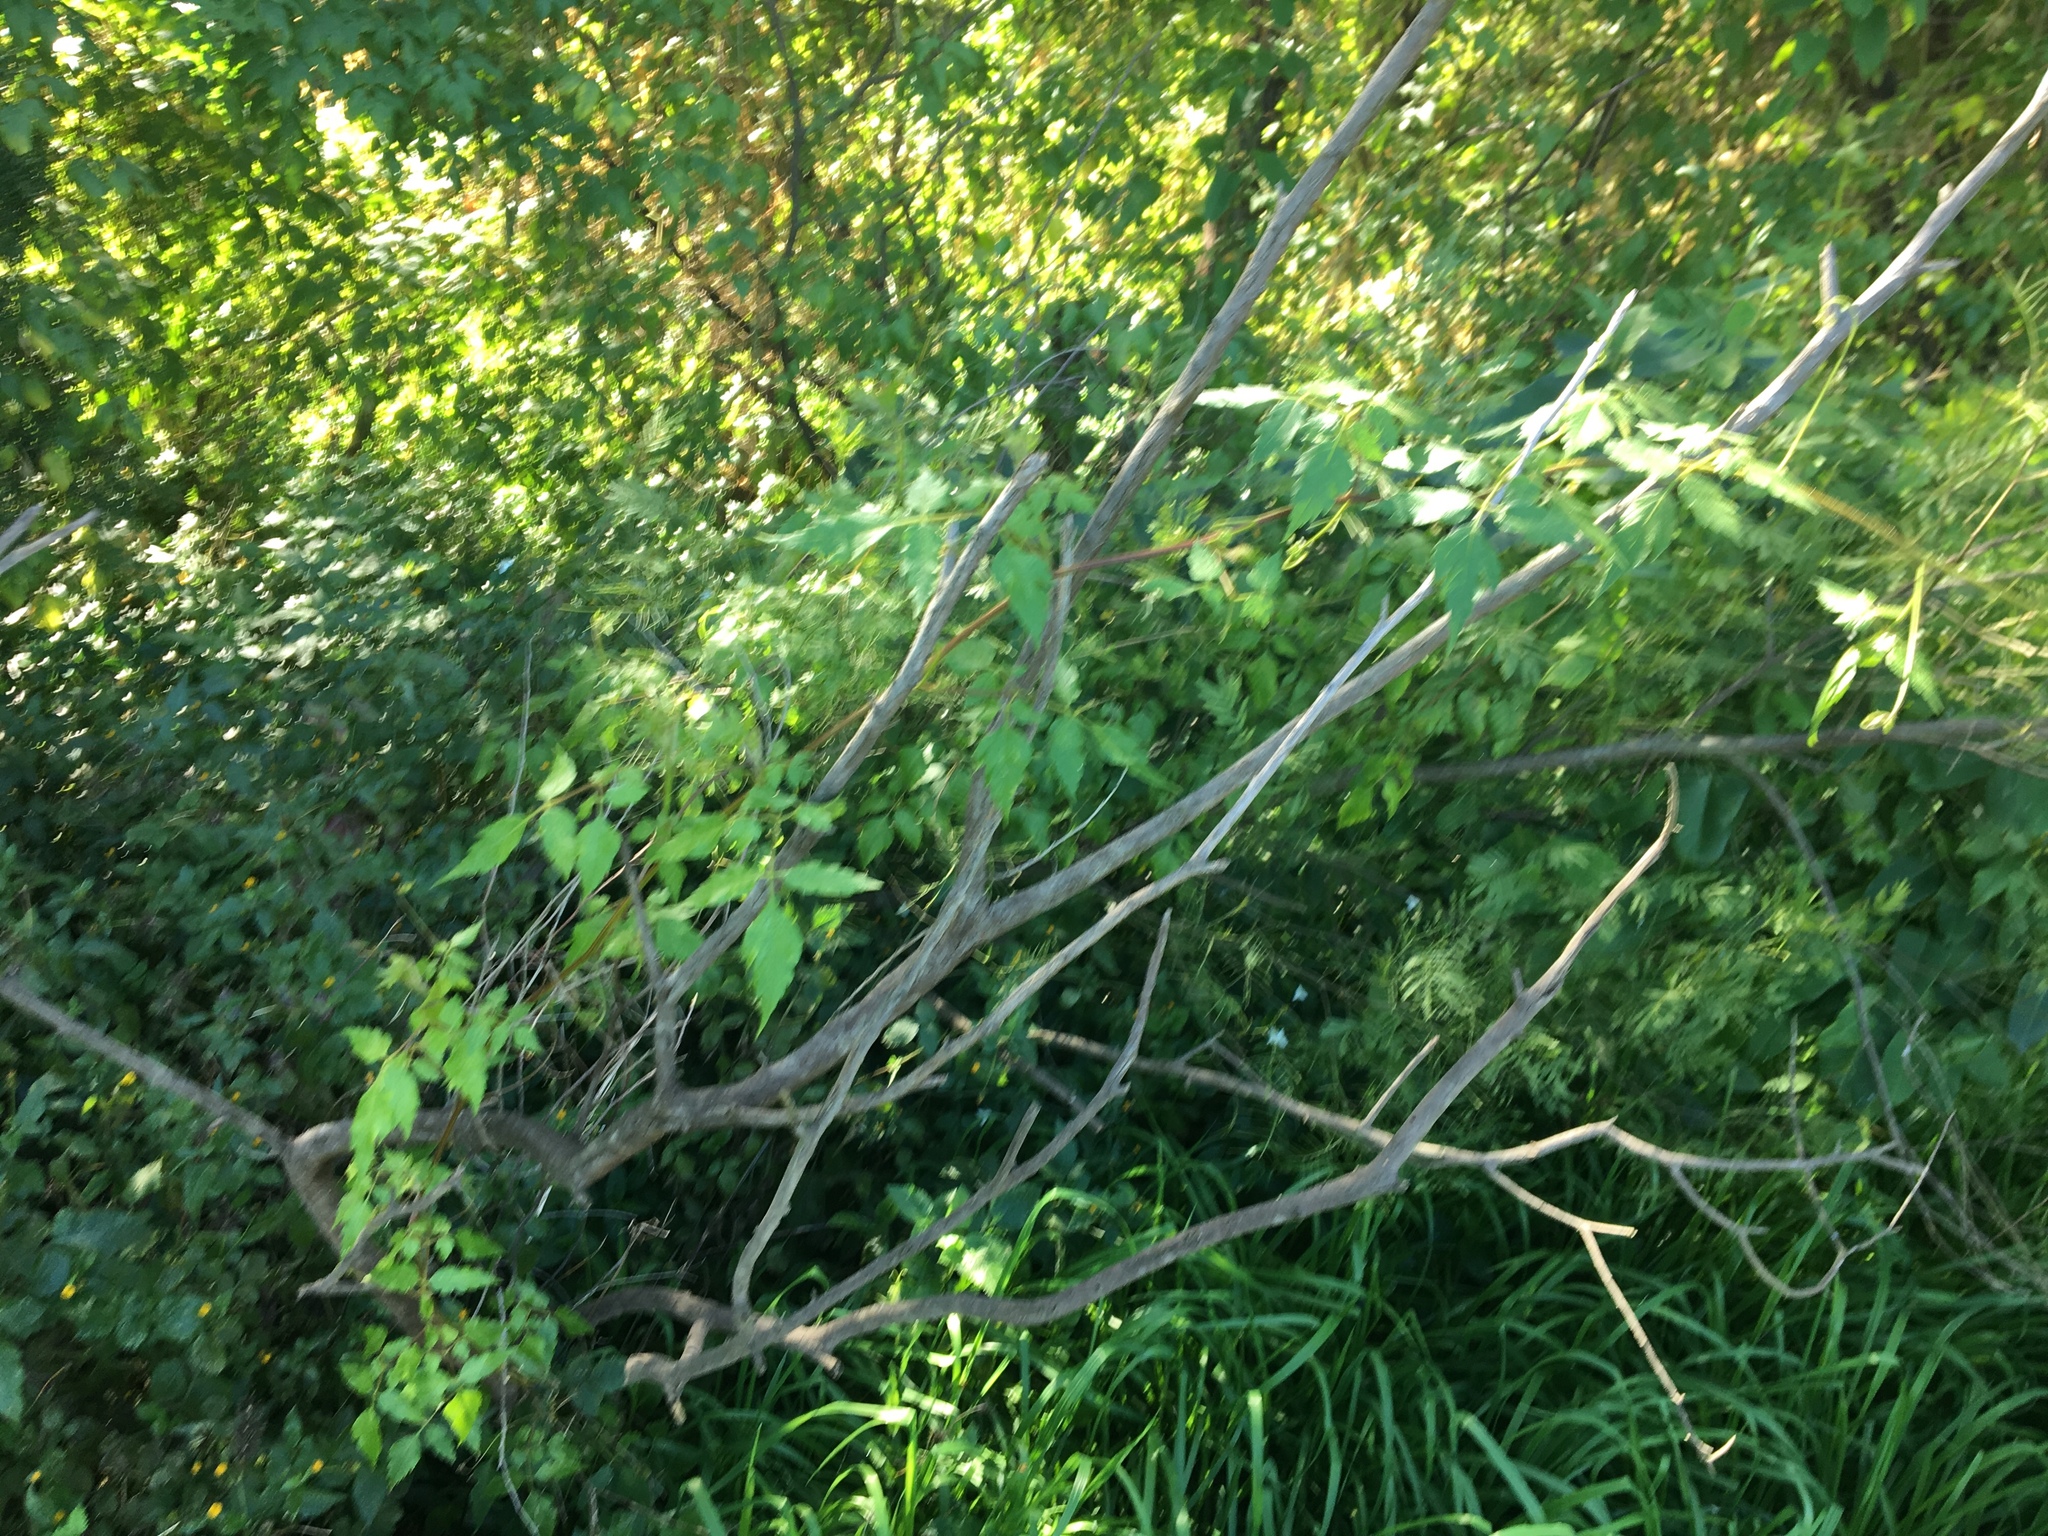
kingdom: Plantae
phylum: Tracheophyta
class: Magnoliopsida
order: Sapindales
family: Sapindaceae
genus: Cardiospermum
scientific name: Cardiospermum grandiflorum
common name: Balloon vine
